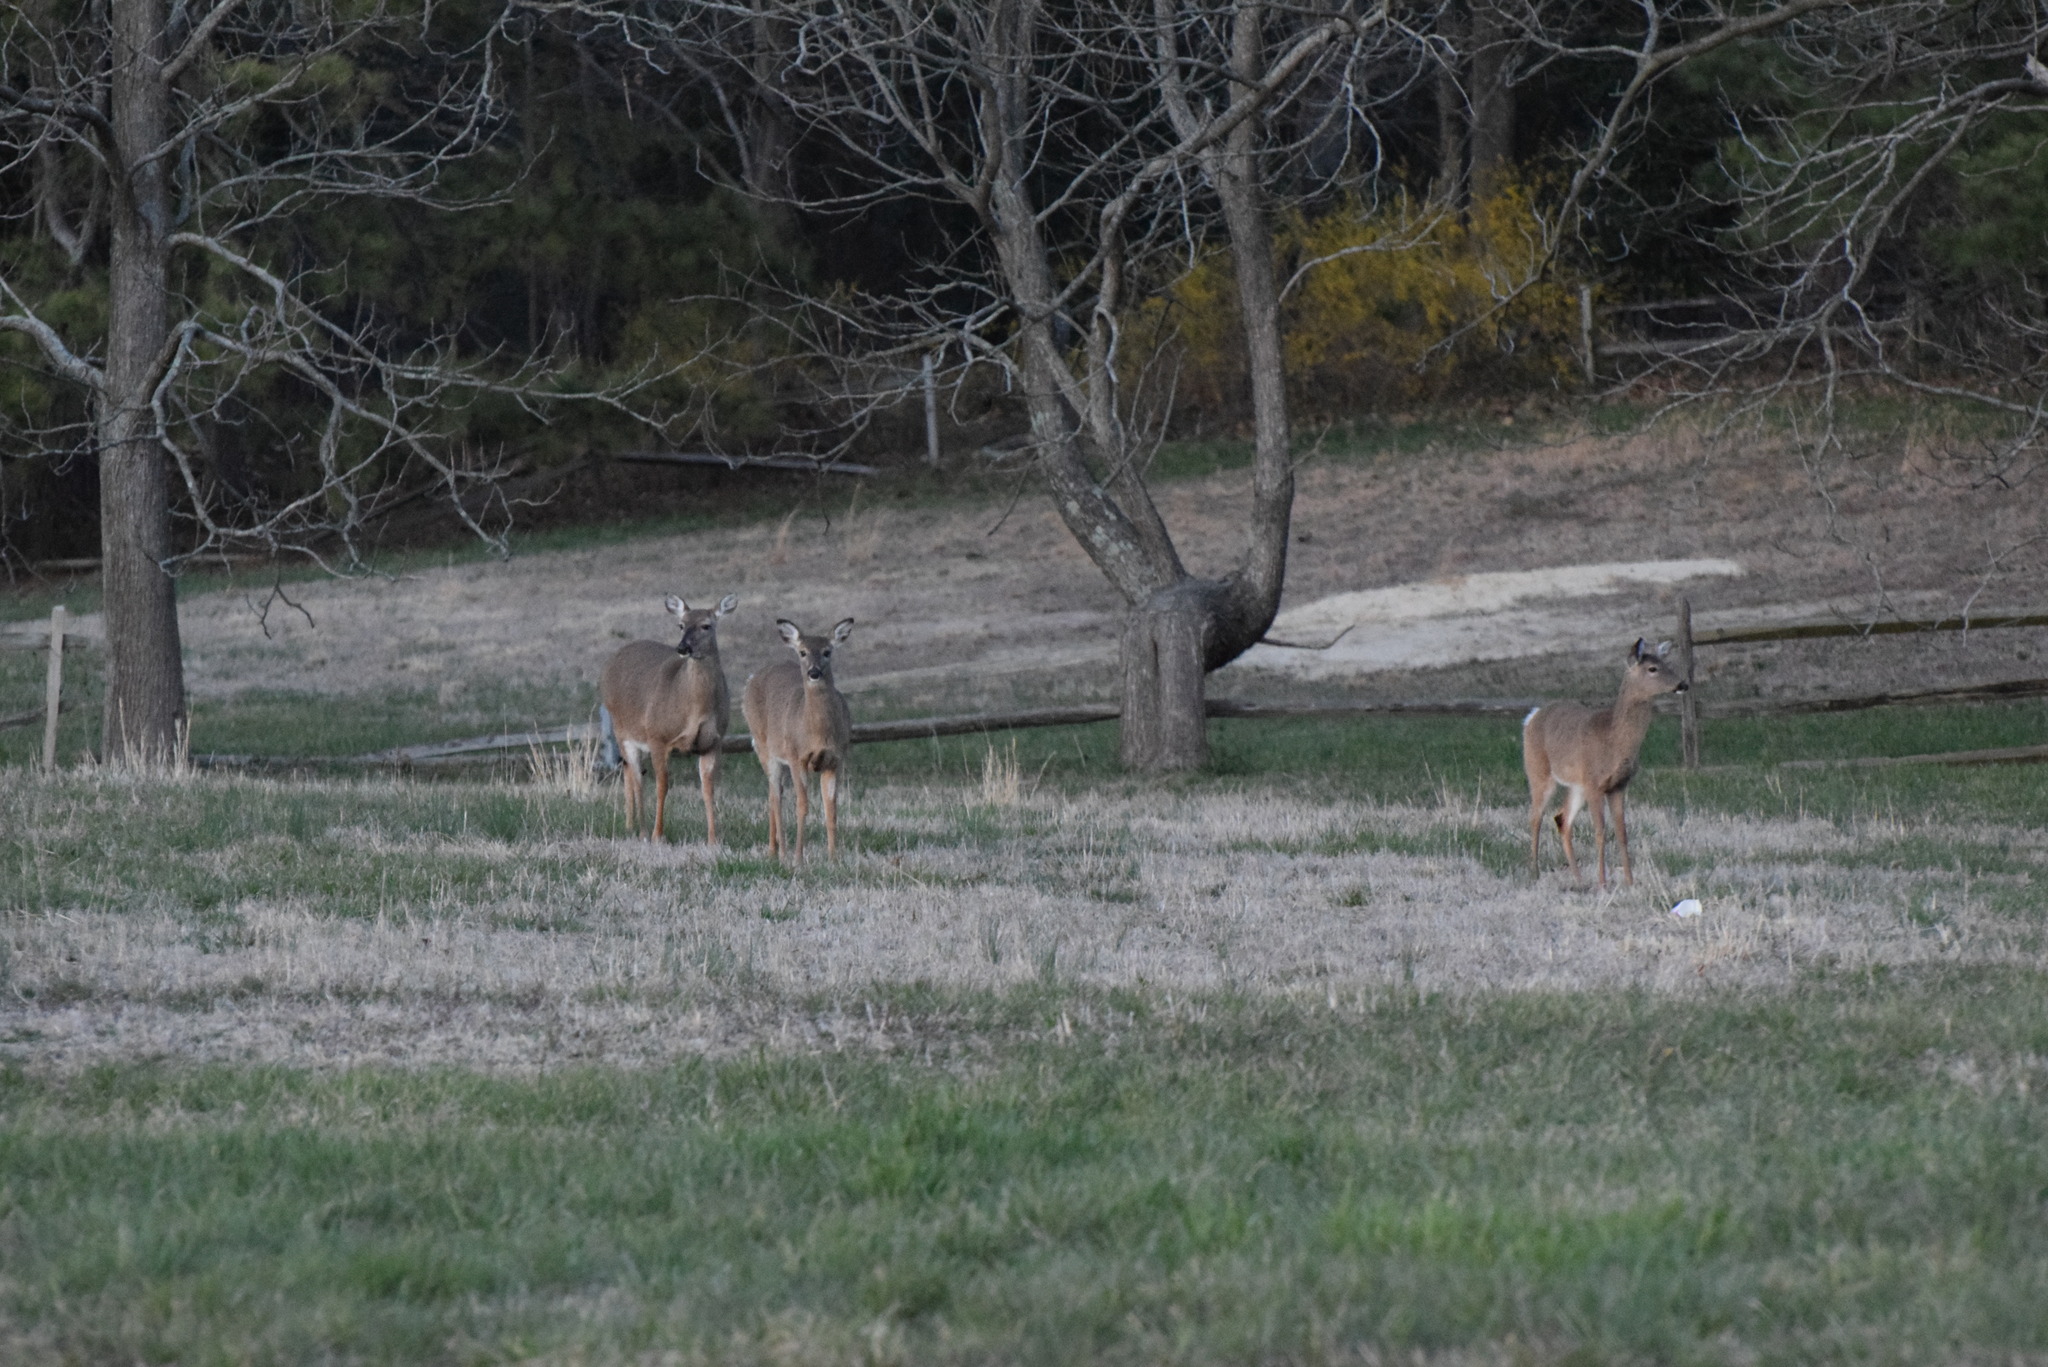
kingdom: Animalia
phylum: Chordata
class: Mammalia
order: Artiodactyla
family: Cervidae
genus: Odocoileus
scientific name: Odocoileus virginianus
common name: White-tailed deer
